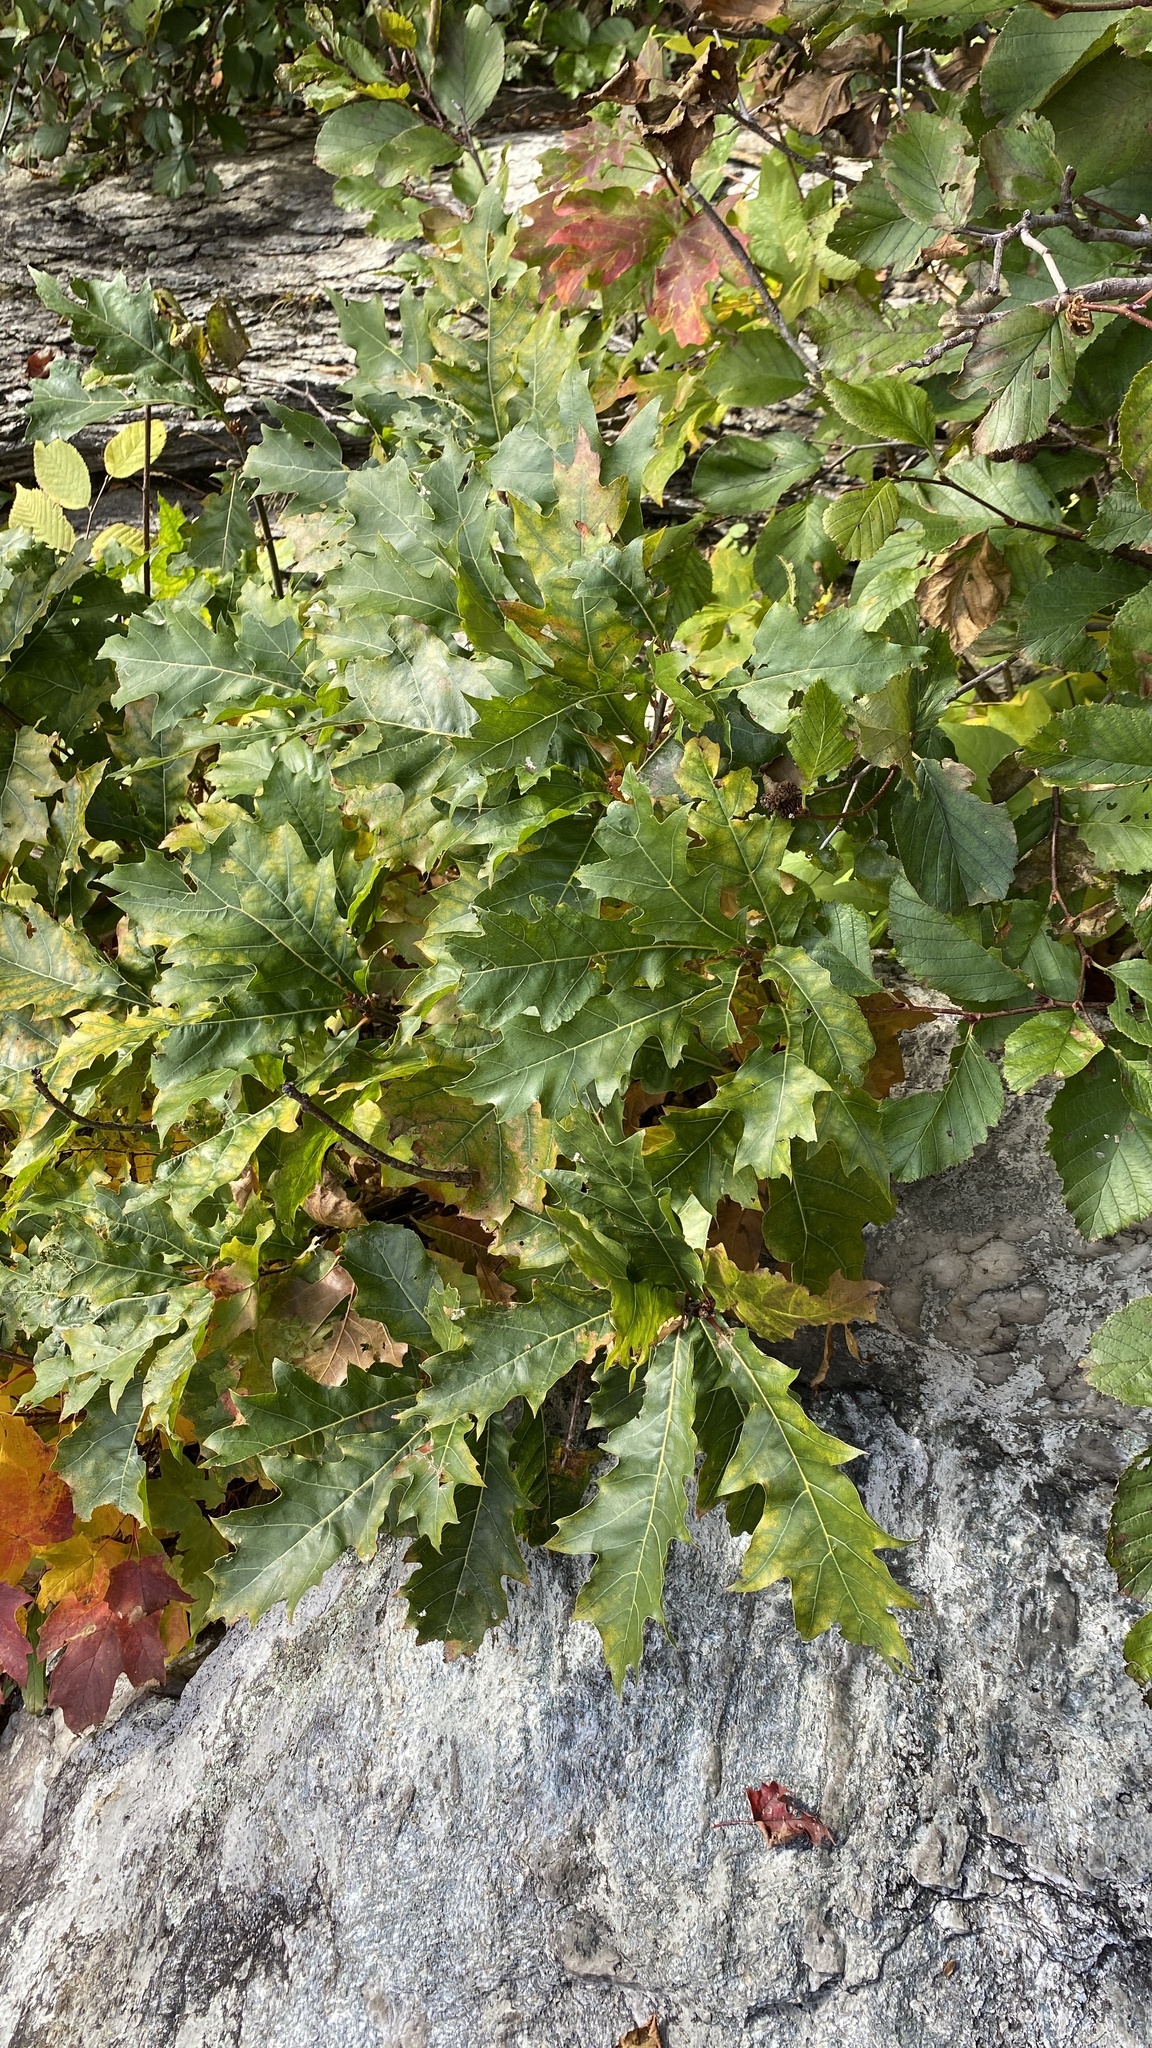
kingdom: Plantae
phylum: Tracheophyta
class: Magnoliopsida
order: Fagales
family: Fagaceae
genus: Quercus
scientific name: Quercus rubra
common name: Red oak
